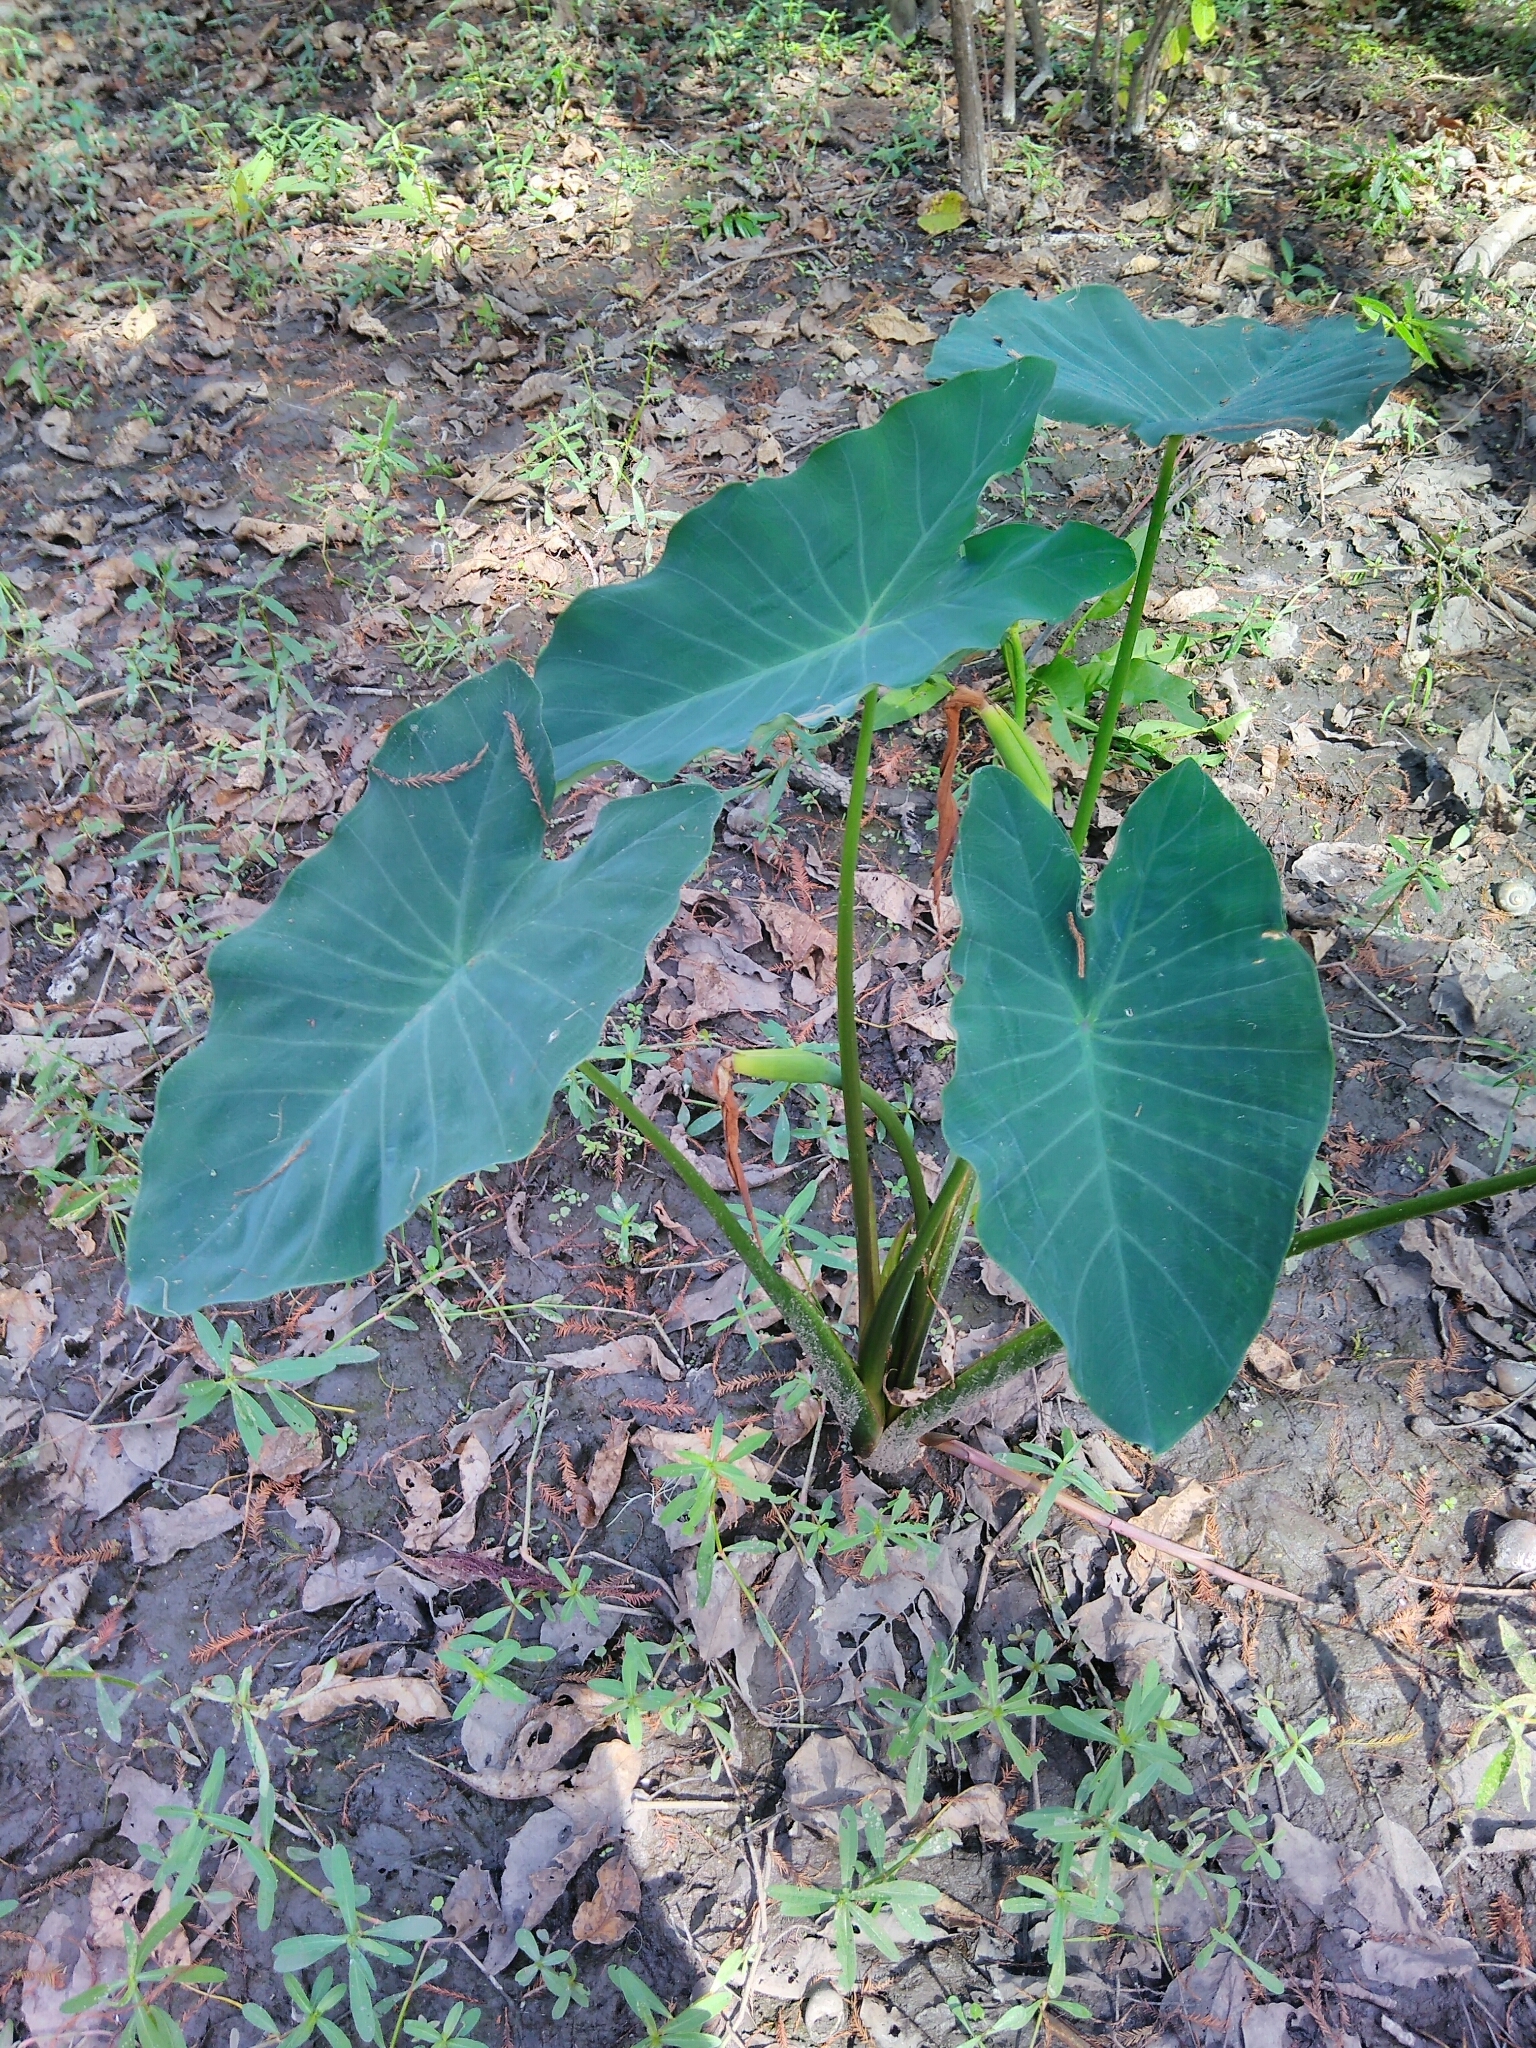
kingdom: Plantae
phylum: Tracheophyta
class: Liliopsida
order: Alismatales
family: Araceae
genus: Colocasia
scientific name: Colocasia esculenta
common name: Taro
